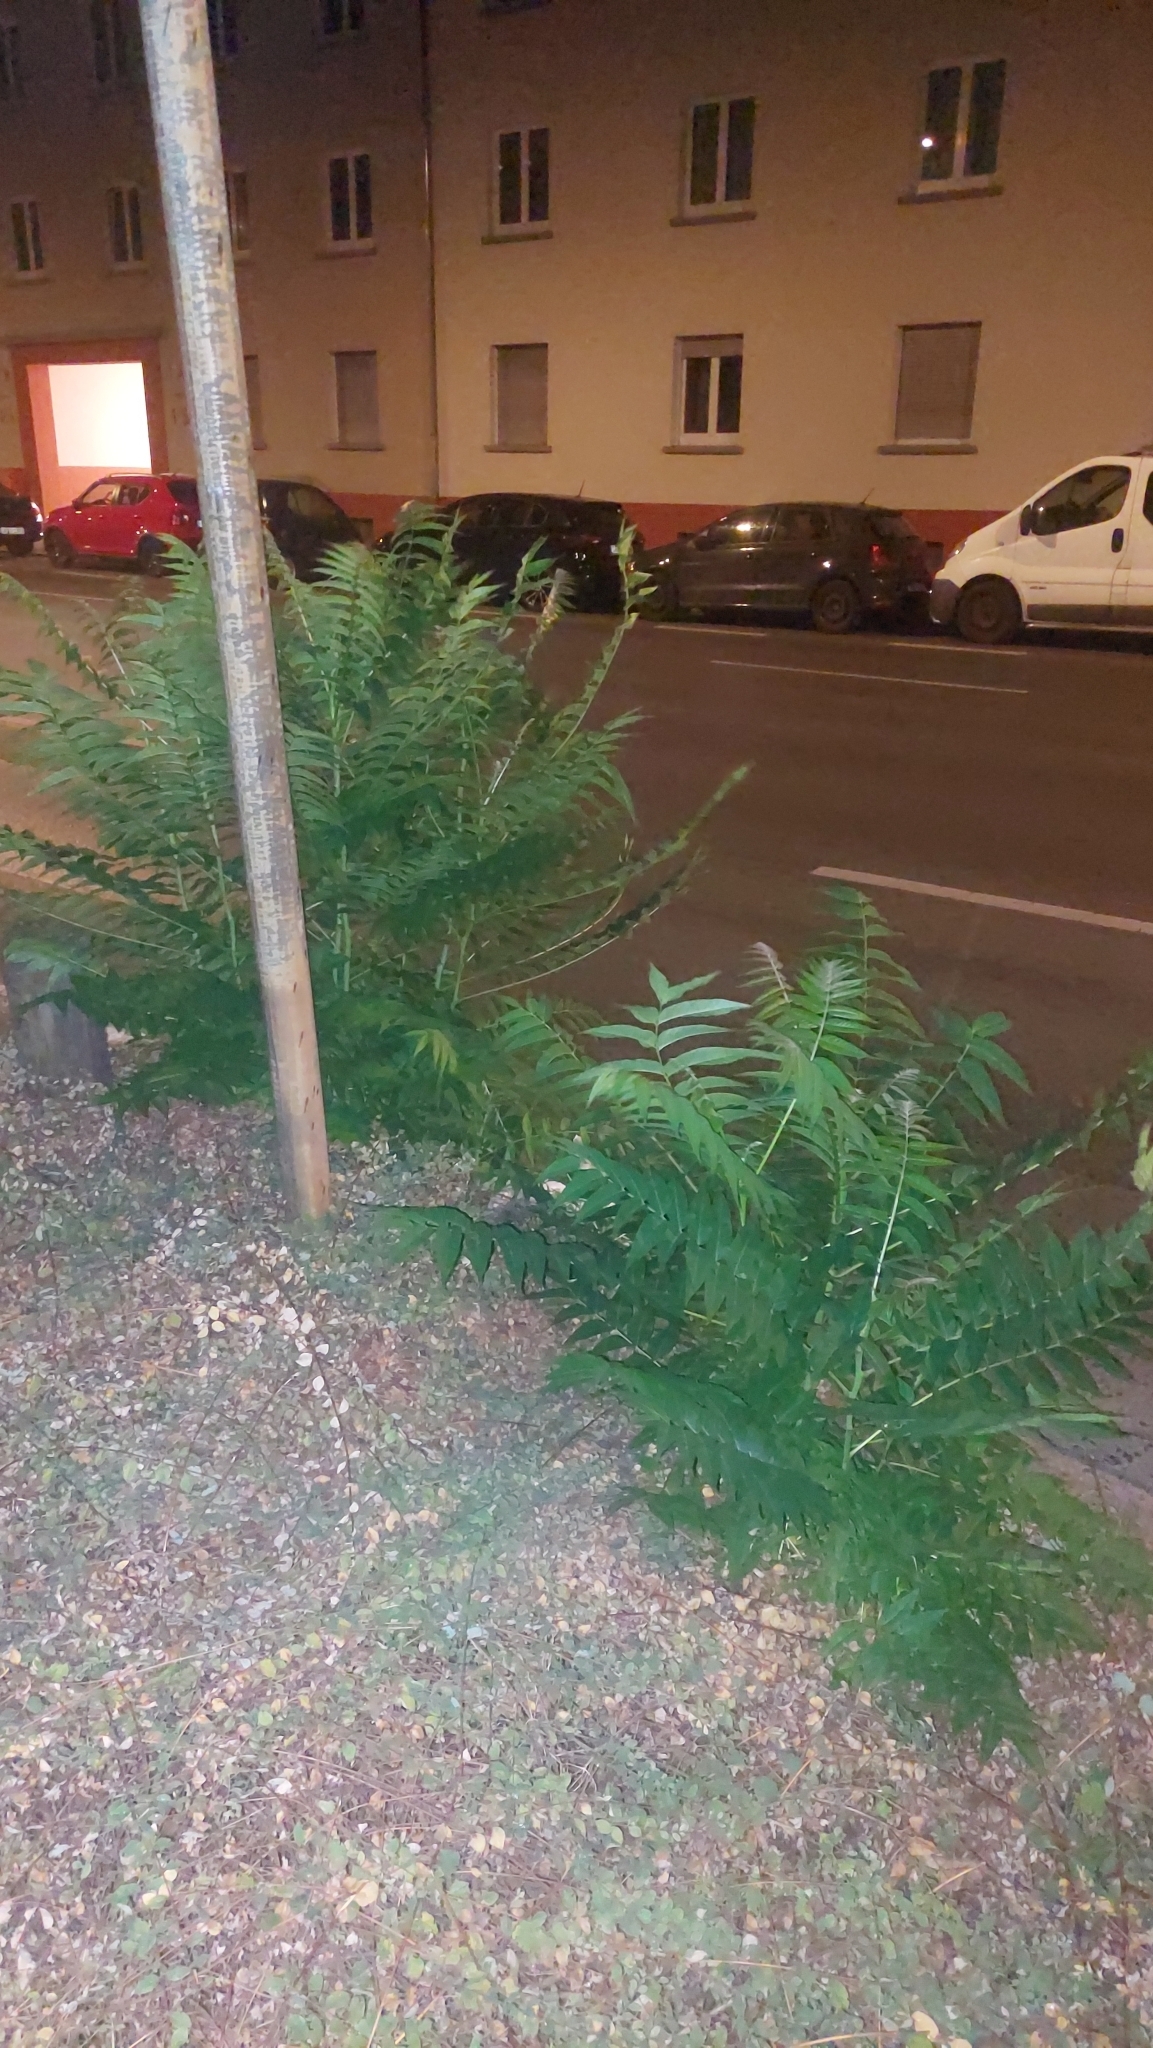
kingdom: Plantae
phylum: Tracheophyta
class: Magnoliopsida
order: Sapindales
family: Simaroubaceae
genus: Ailanthus
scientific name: Ailanthus altissima
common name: Tree-of-heaven
